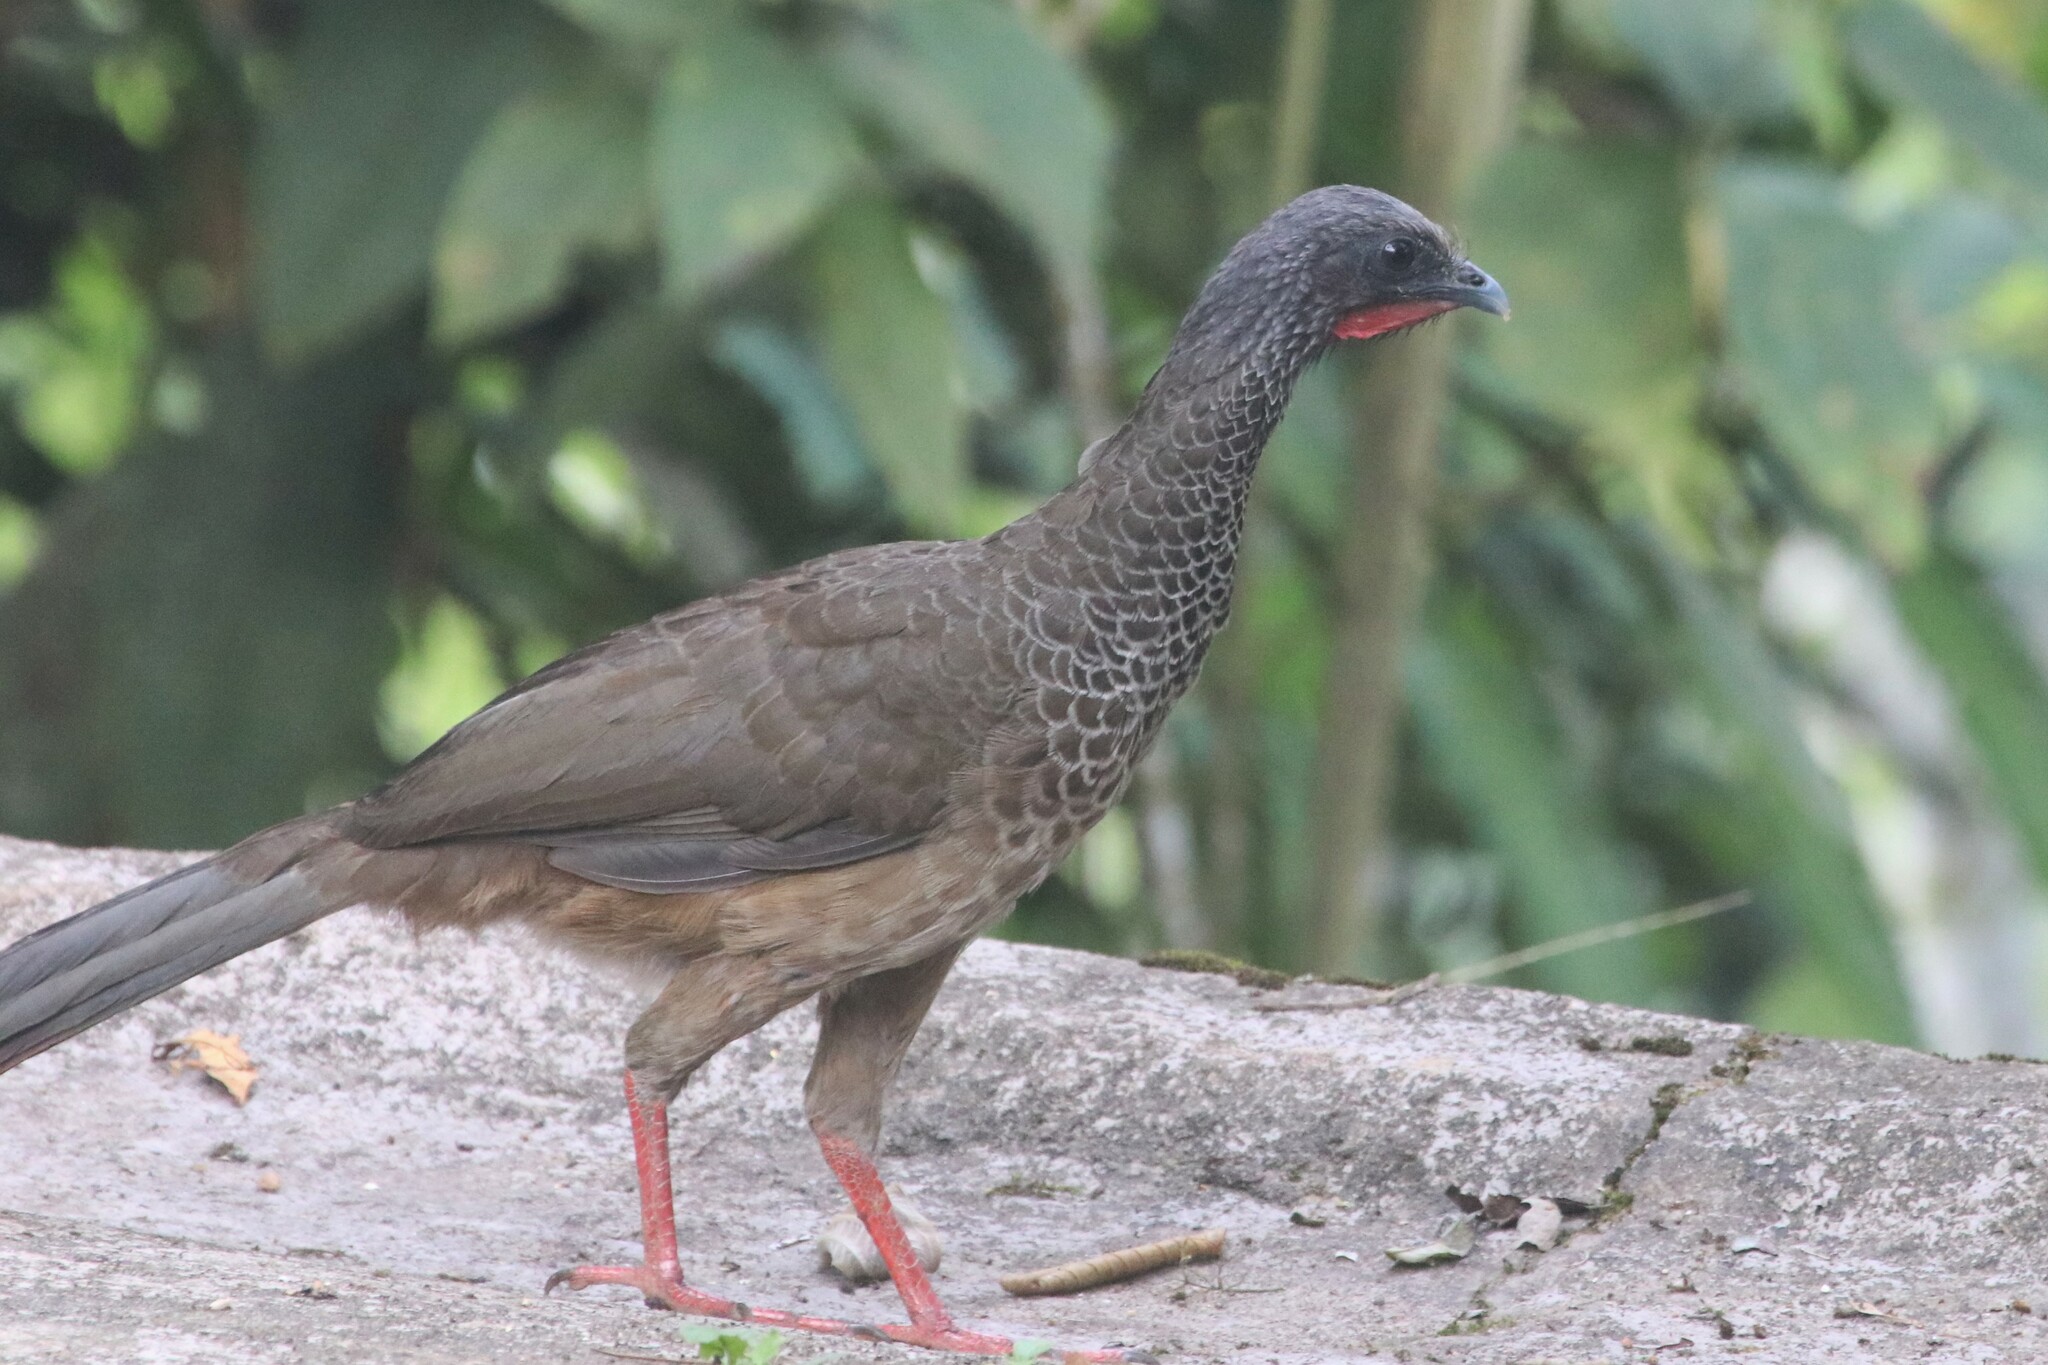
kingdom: Animalia
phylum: Chordata
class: Aves
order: Galliformes
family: Cracidae
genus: Ortalis
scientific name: Ortalis columbiana
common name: Colombian chachalaca
